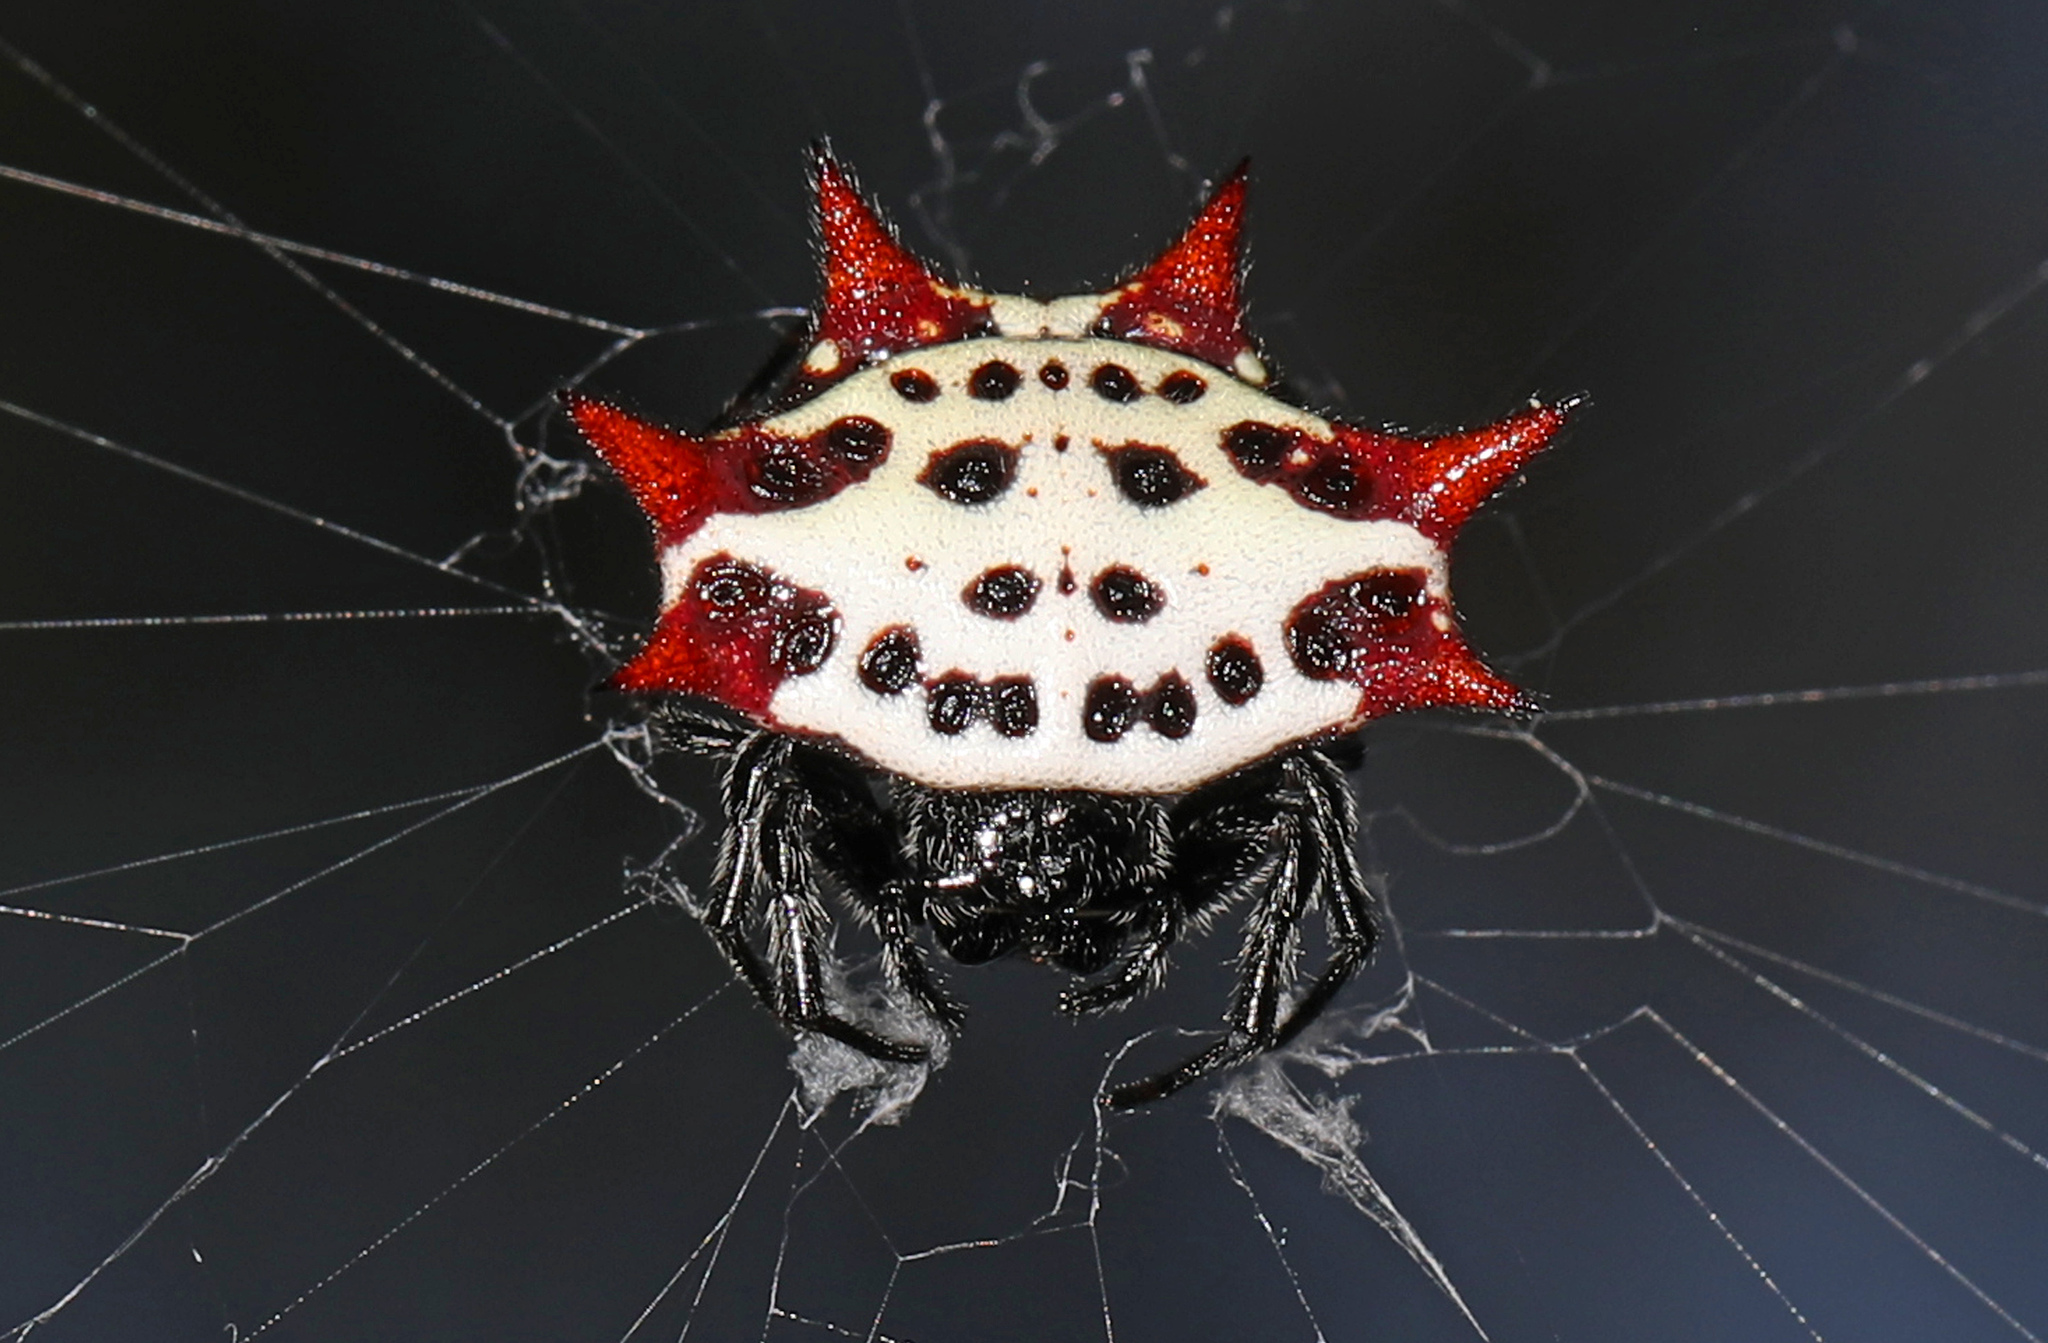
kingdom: Animalia
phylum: Arthropoda
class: Arachnida
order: Araneae
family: Araneidae
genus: Gasteracantha
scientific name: Gasteracantha cancriformis
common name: Orb weavers
